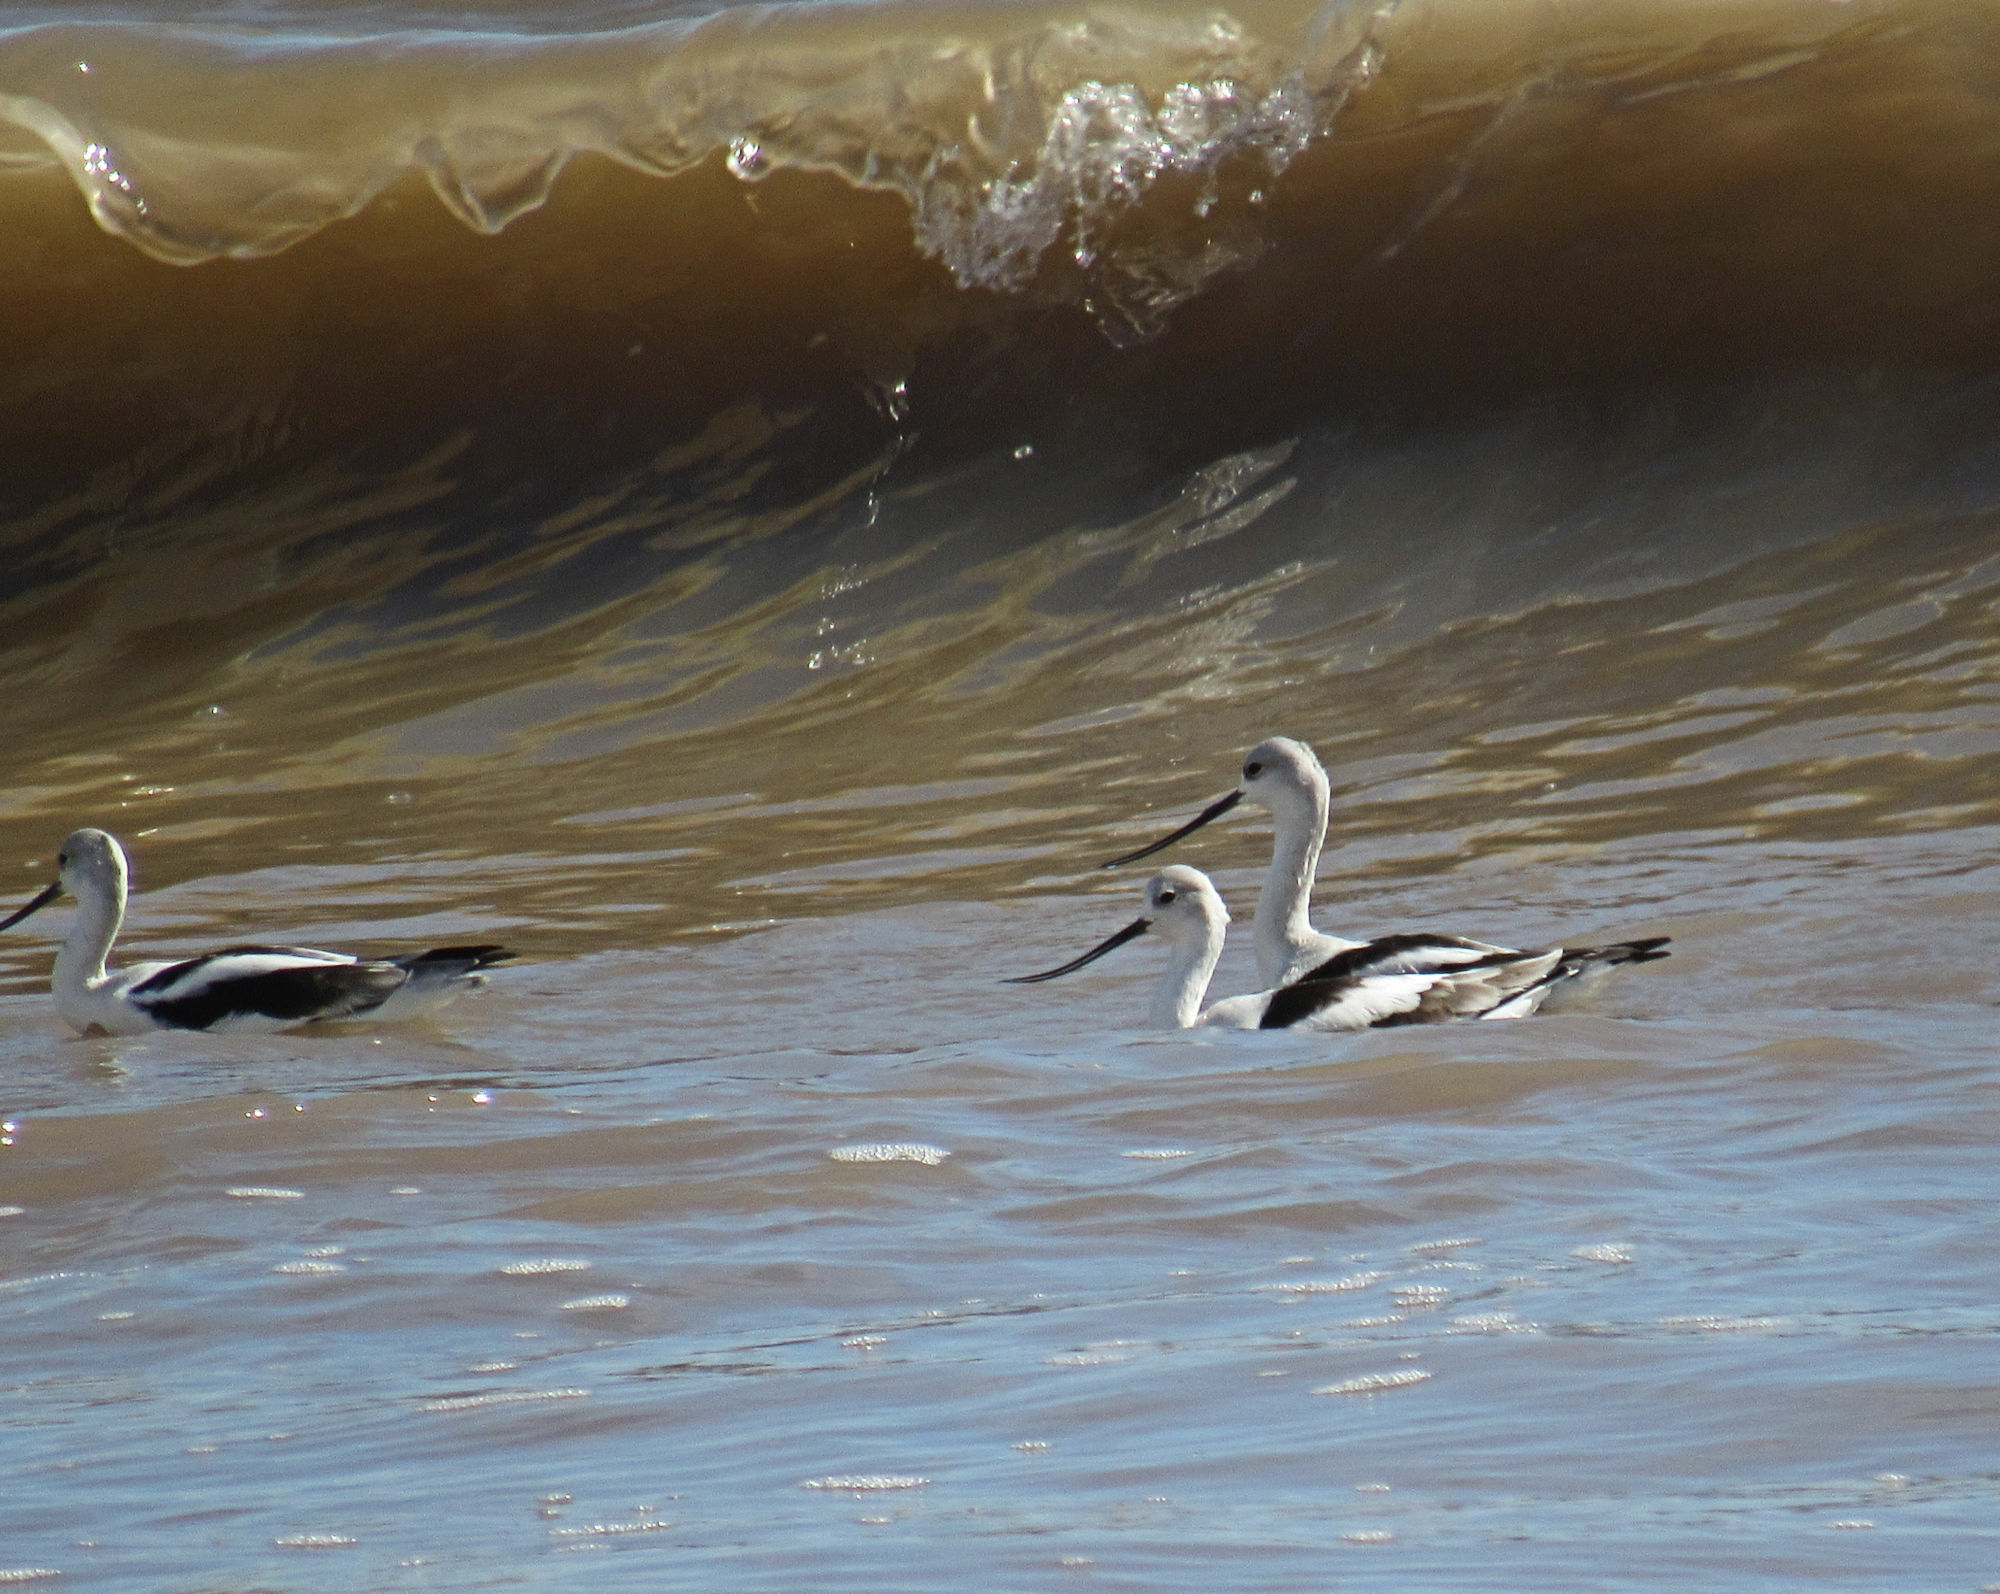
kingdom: Animalia
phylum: Chordata
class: Aves
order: Charadriiformes
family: Recurvirostridae
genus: Recurvirostra
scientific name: Recurvirostra americana
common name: American avocet
